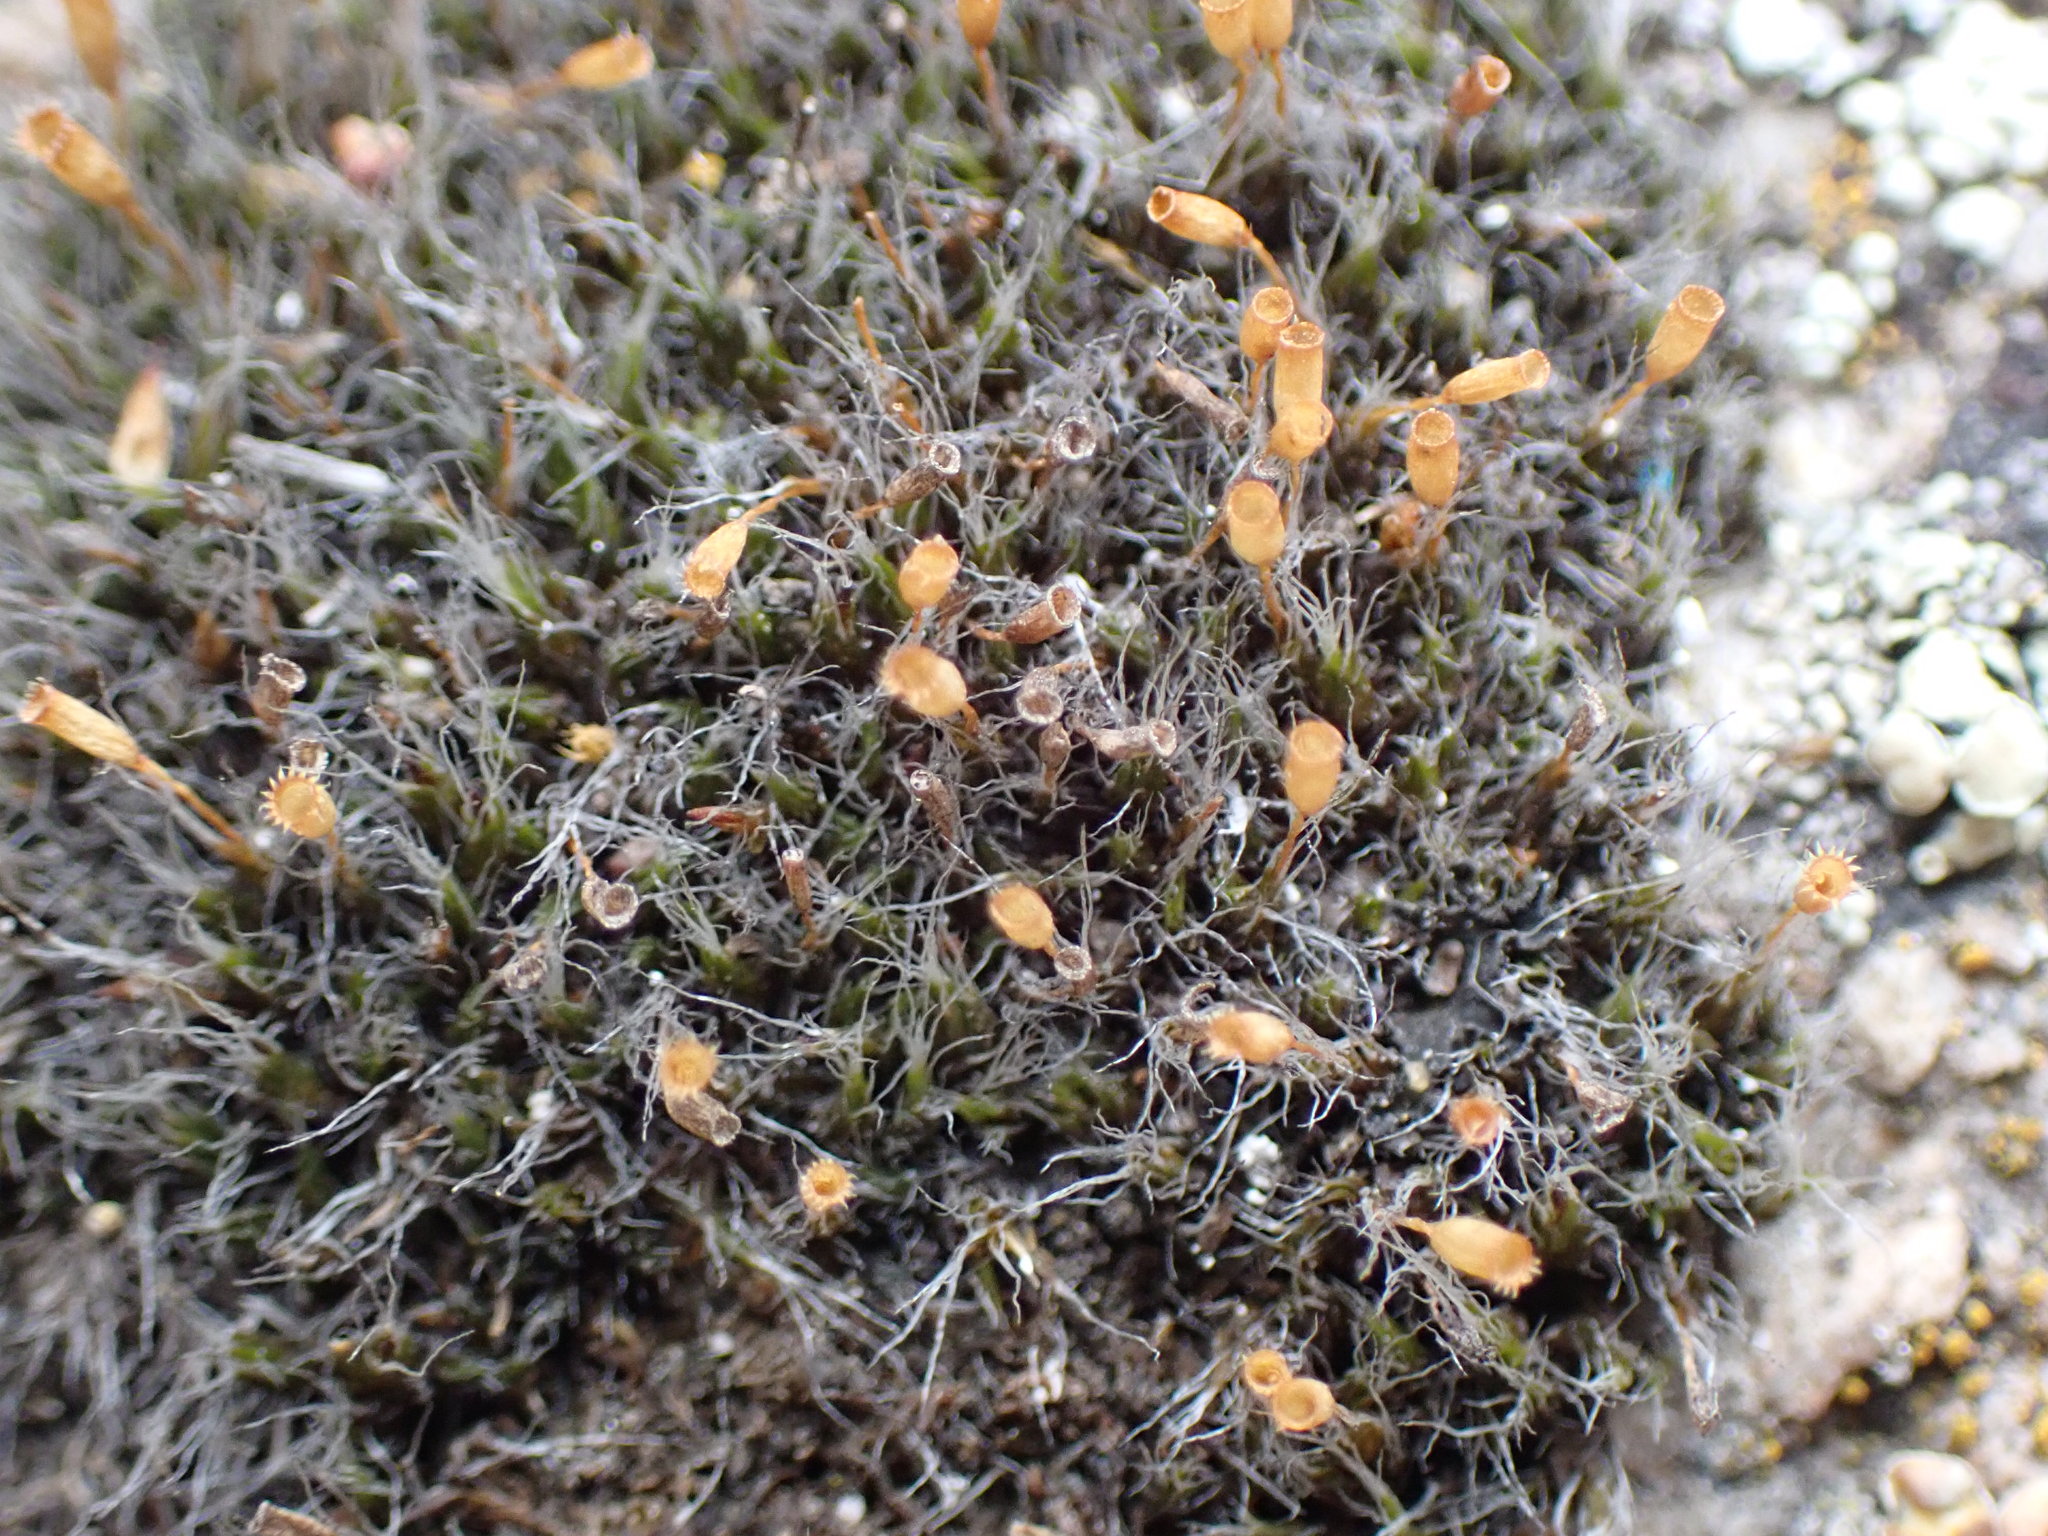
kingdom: Plantae
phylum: Bryophyta
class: Bryopsida
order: Grimmiales
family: Grimmiaceae
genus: Coscinodon
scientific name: Coscinodon calyptratus
